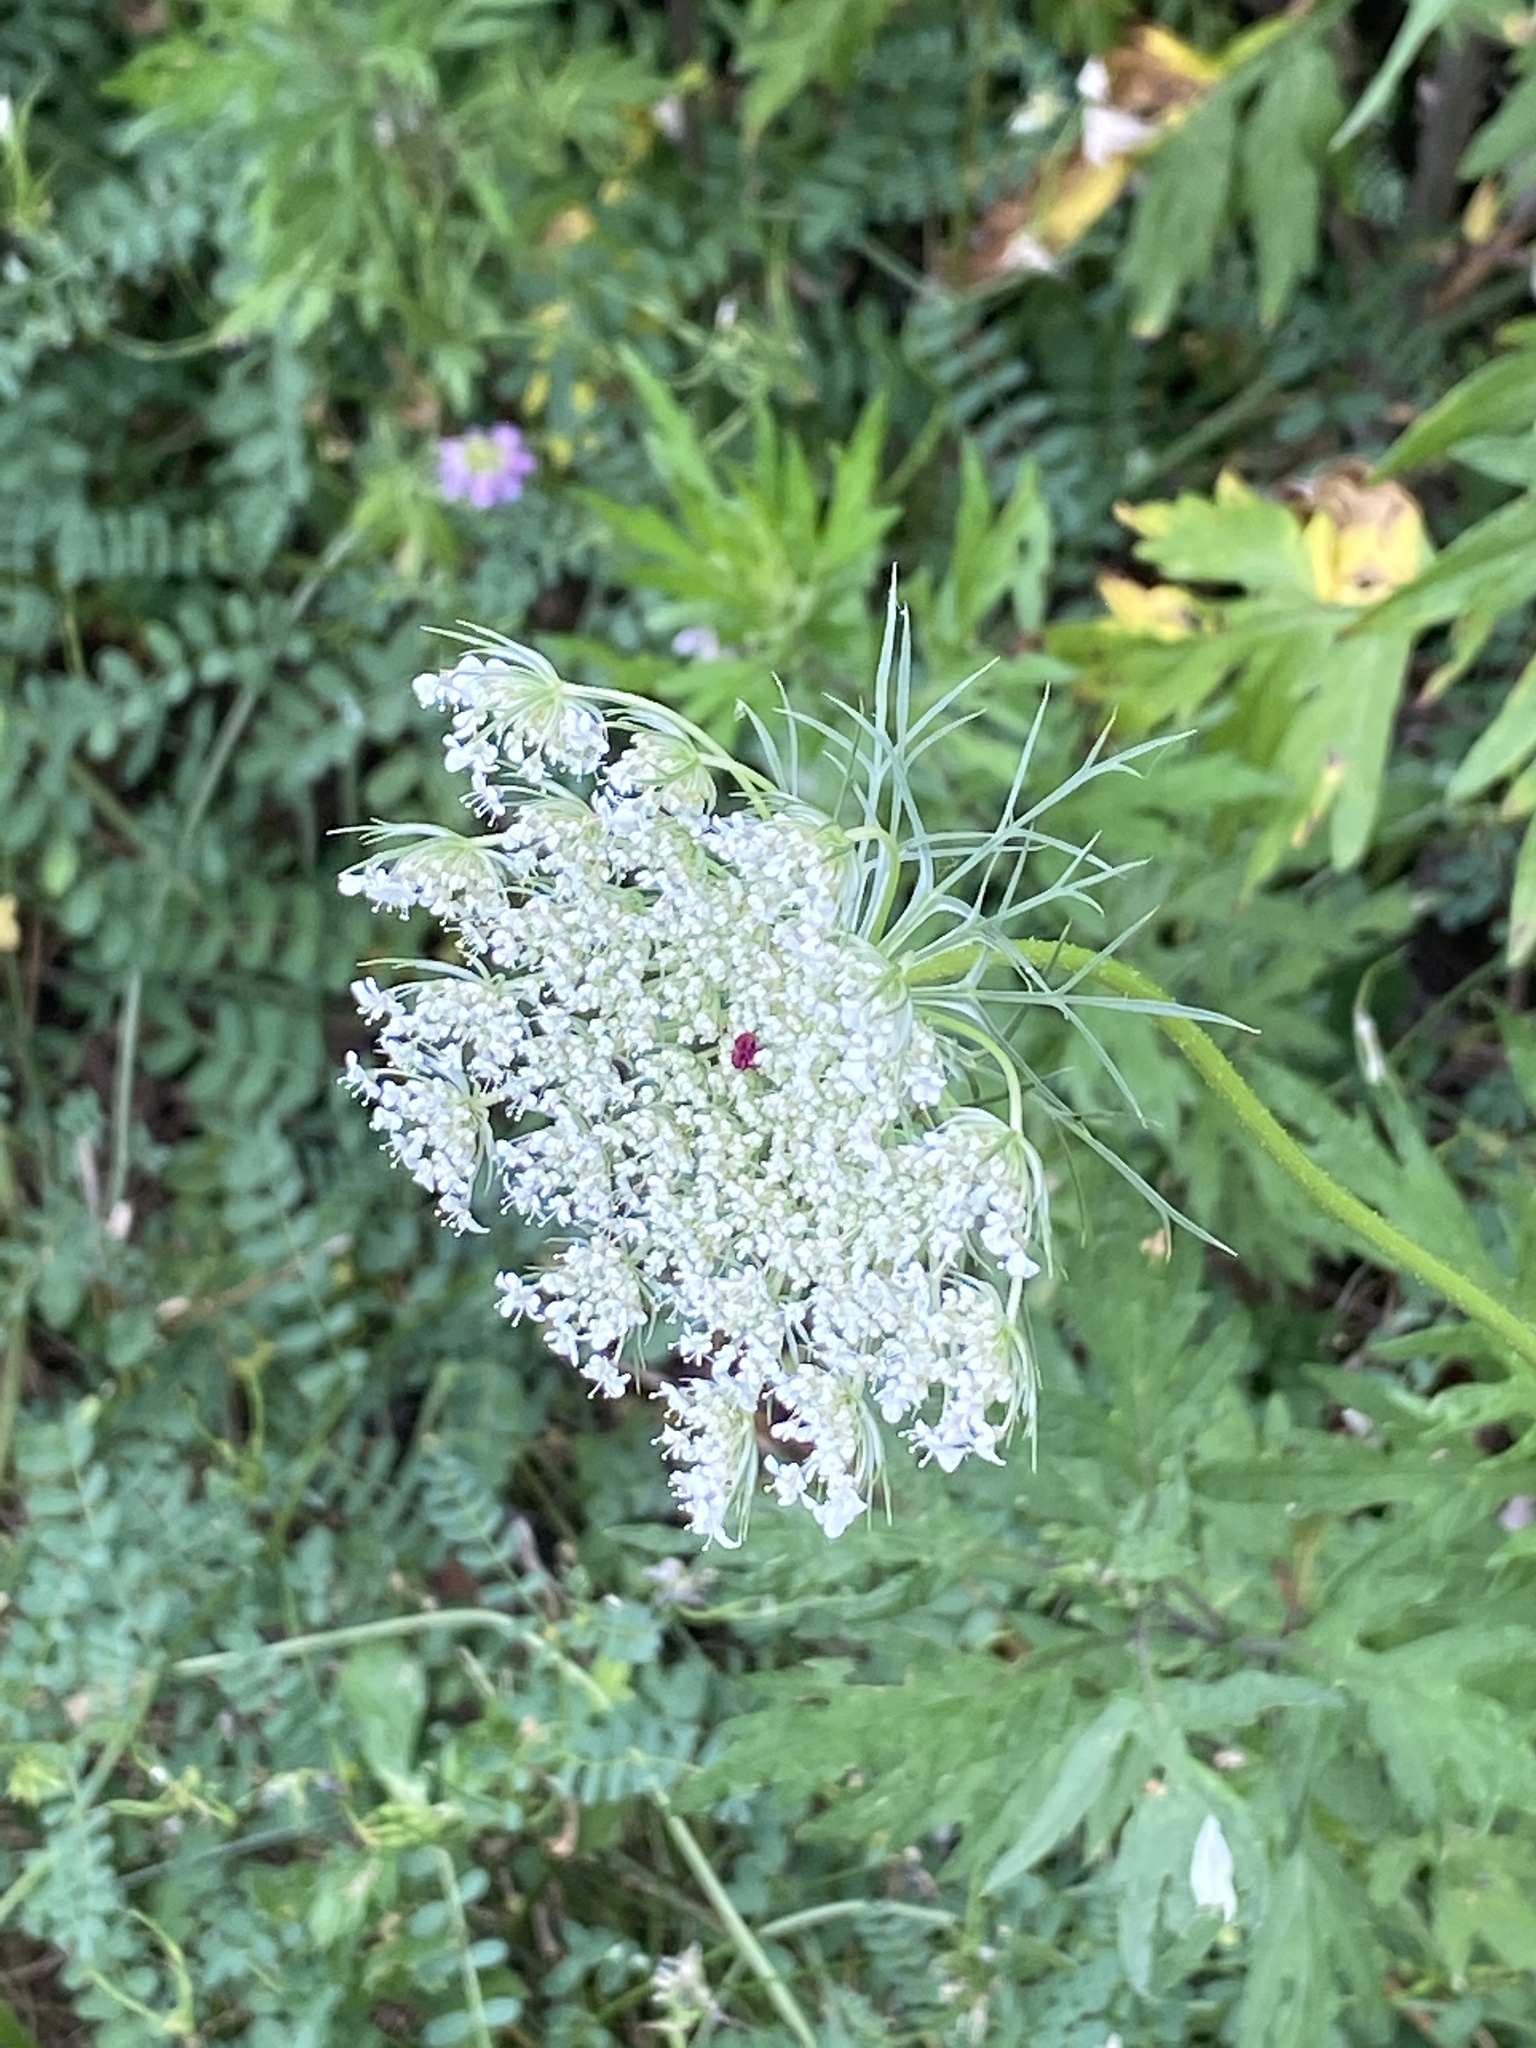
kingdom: Plantae
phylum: Tracheophyta
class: Magnoliopsida
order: Apiales
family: Apiaceae
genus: Daucus
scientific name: Daucus carota
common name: Wild carrot
